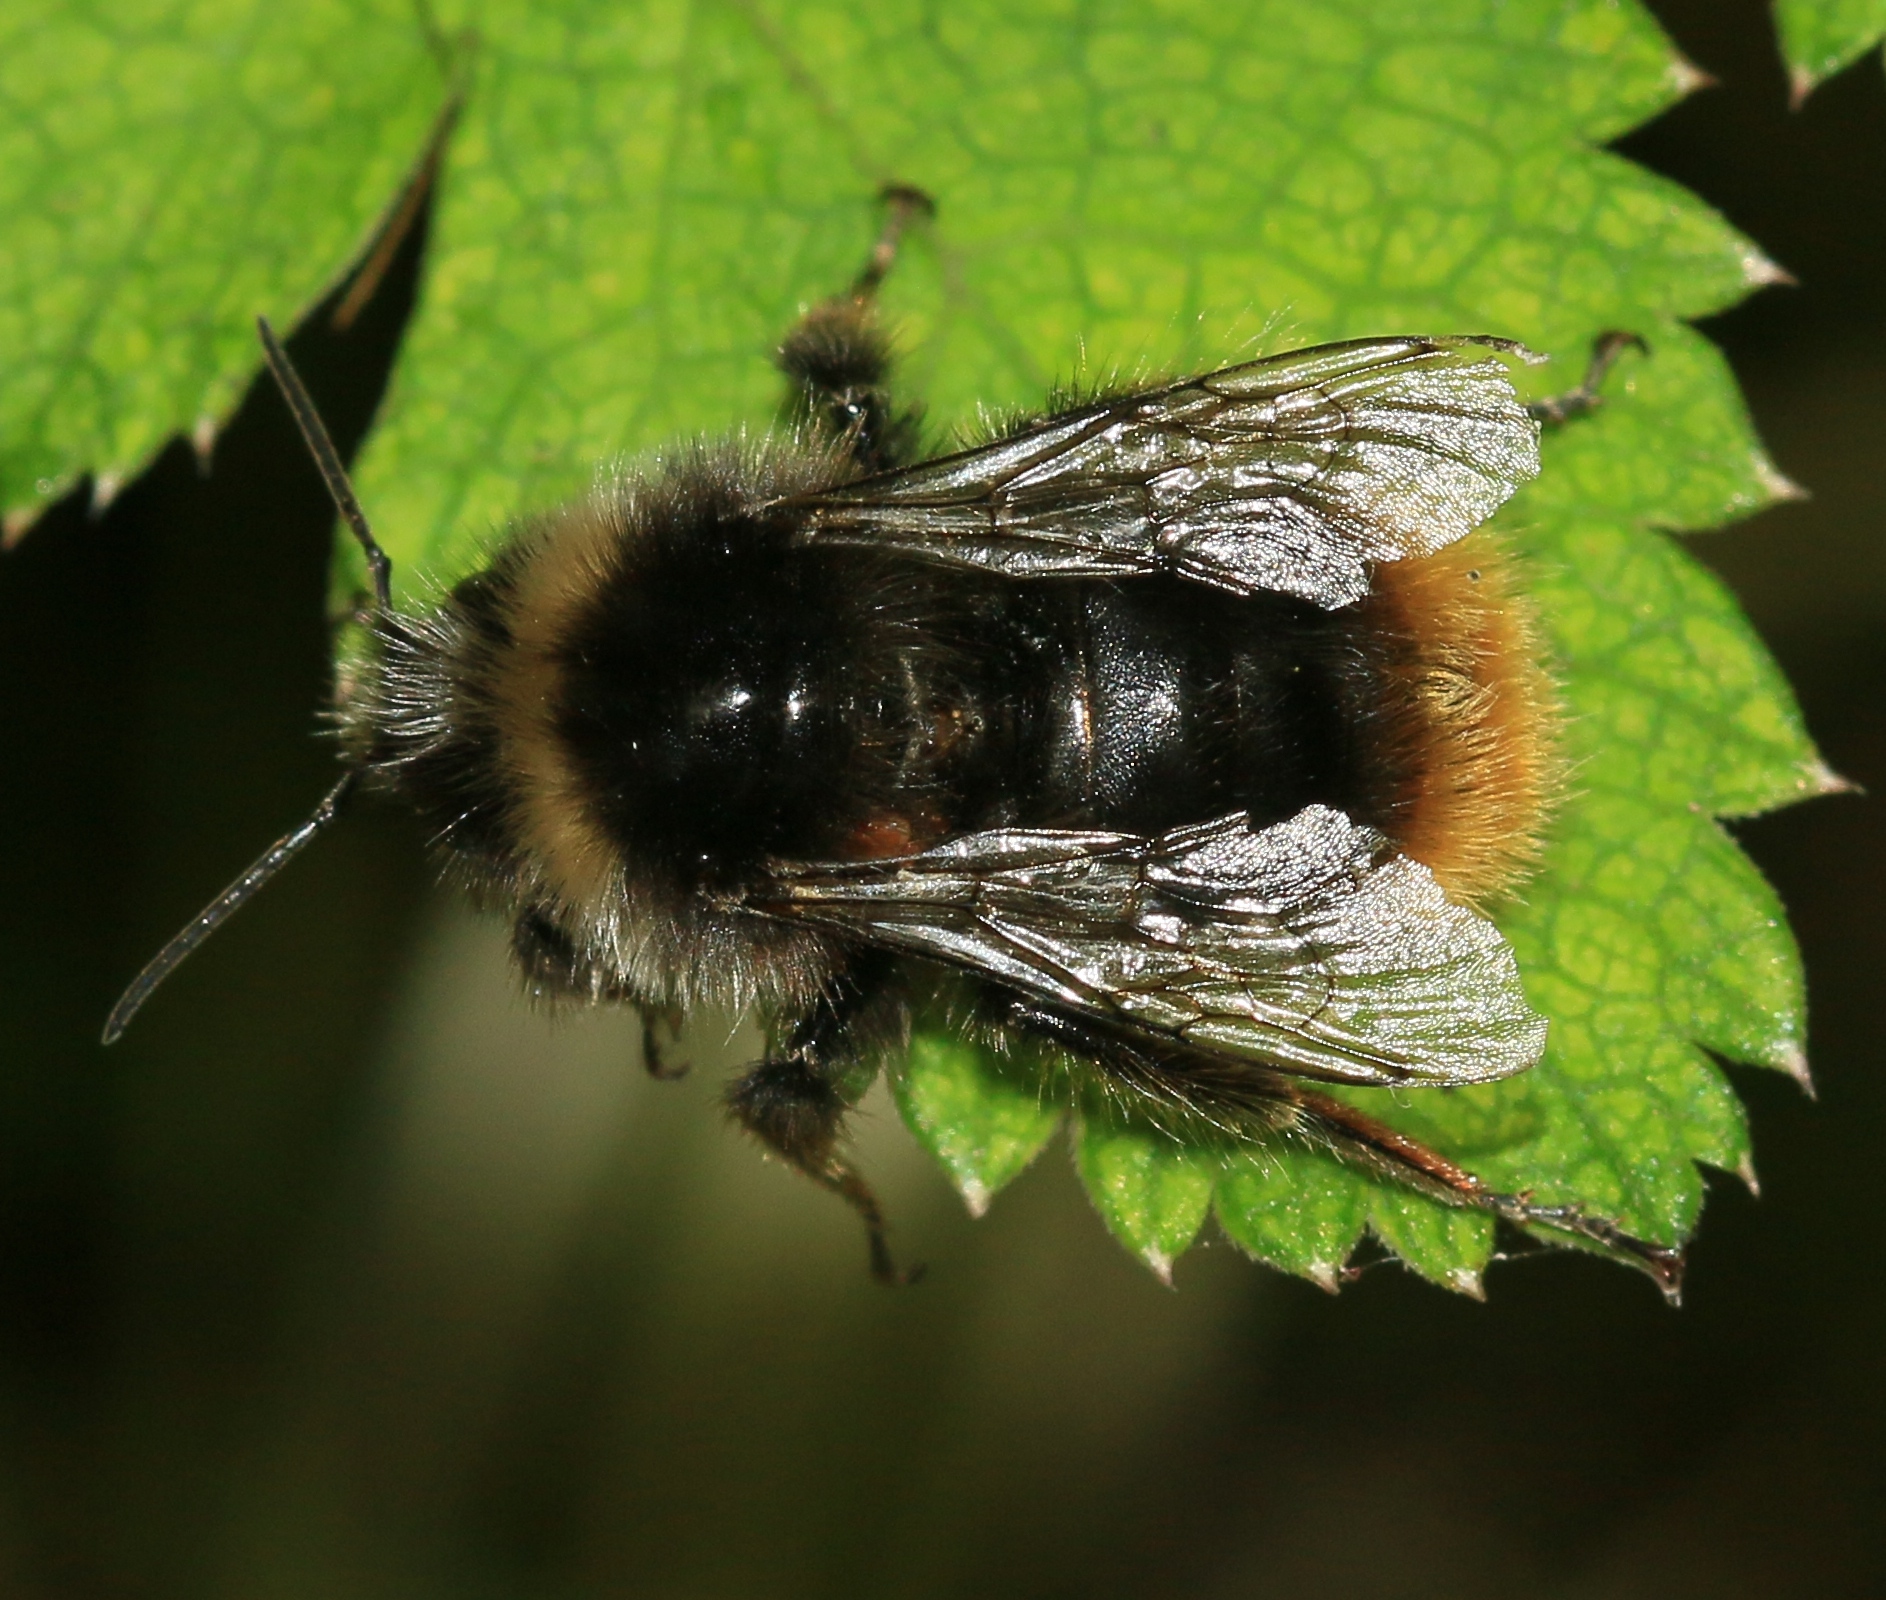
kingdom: Animalia
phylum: Arthropoda
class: Insecta
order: Hymenoptera
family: Apidae
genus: Bombus
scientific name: Bombus pratorum
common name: Early humble-bee
